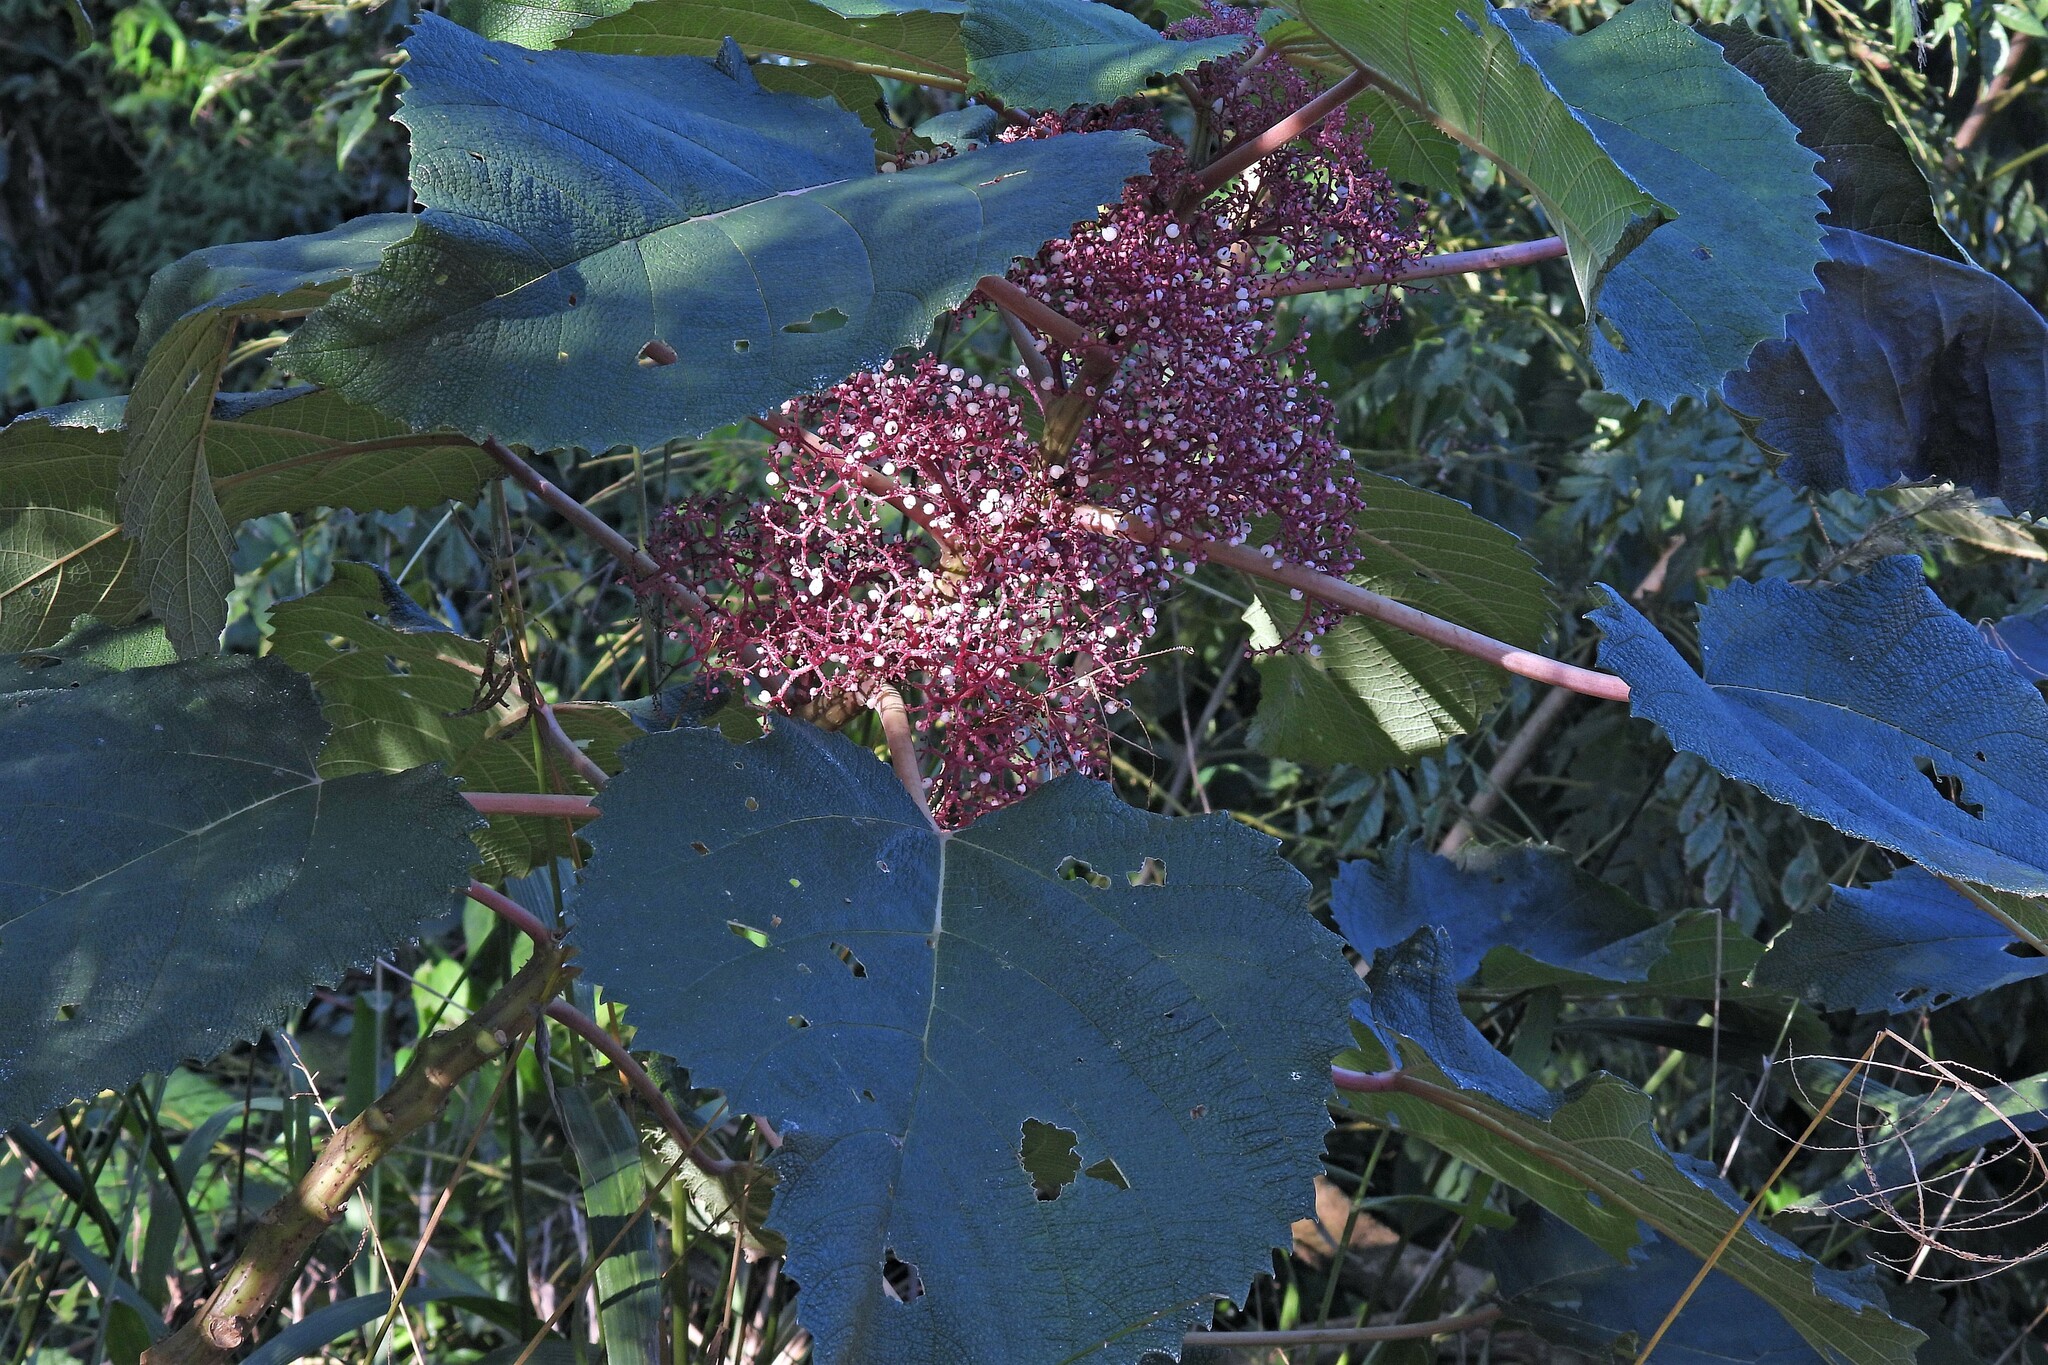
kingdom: Plantae
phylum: Tracheophyta
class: Magnoliopsida
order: Rosales
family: Urticaceae
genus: Urera
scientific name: Urera baccifera
